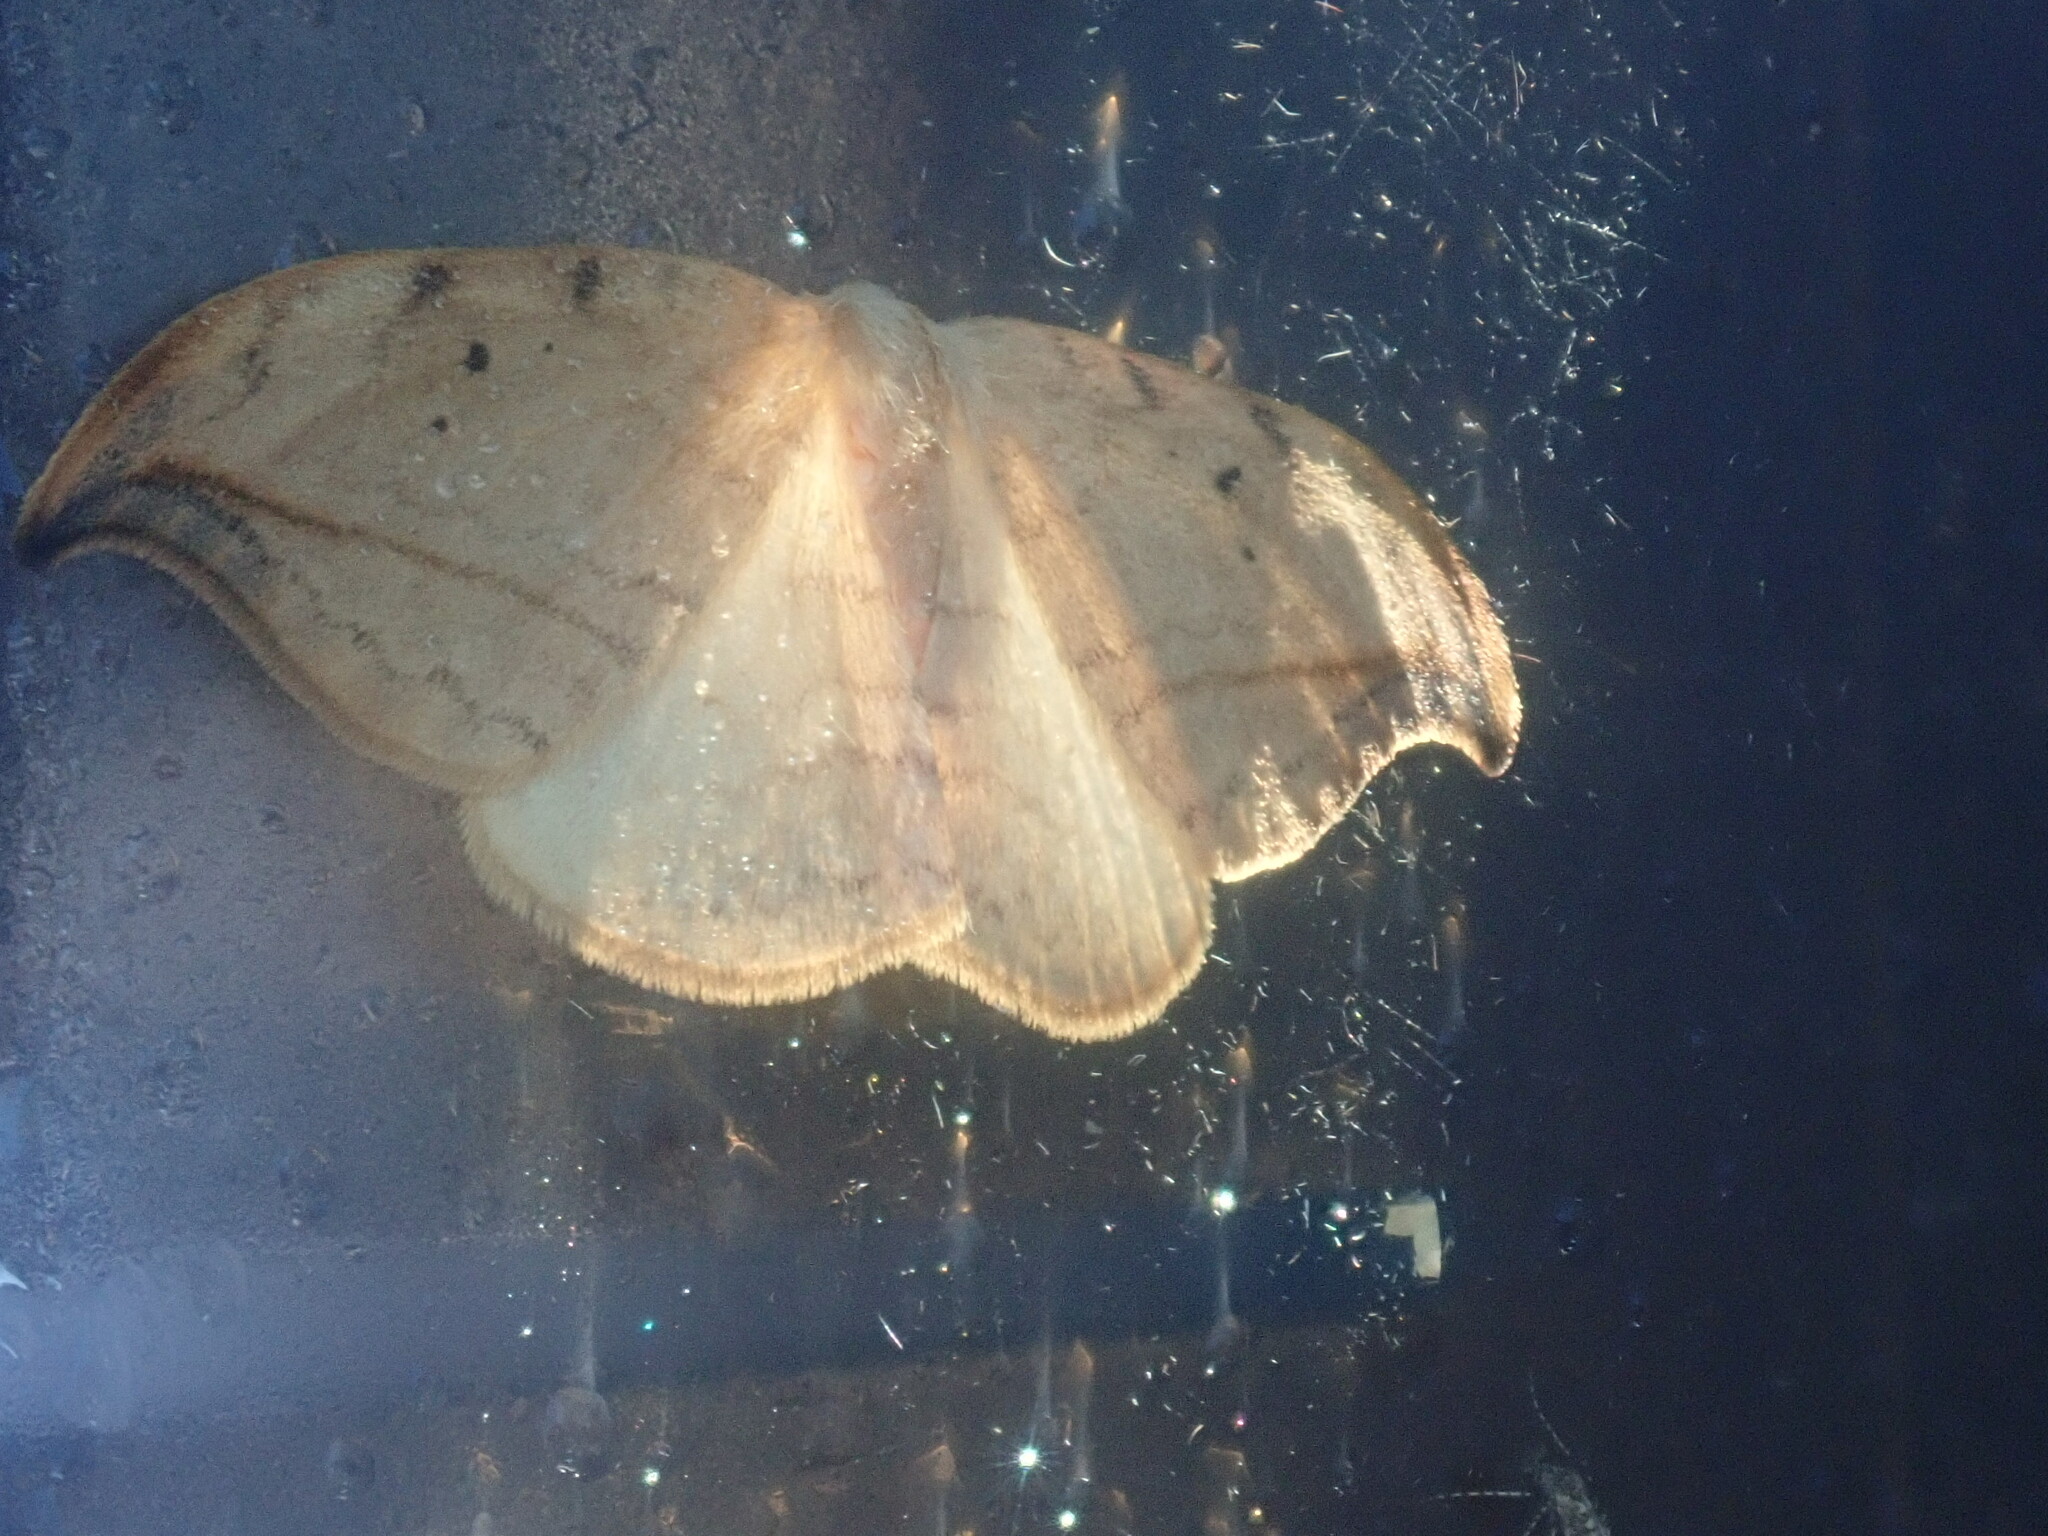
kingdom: Animalia
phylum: Arthropoda
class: Insecta
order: Lepidoptera
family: Drepanidae
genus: Drepana
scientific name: Drepana arcuata
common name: Arched hooktip moth
